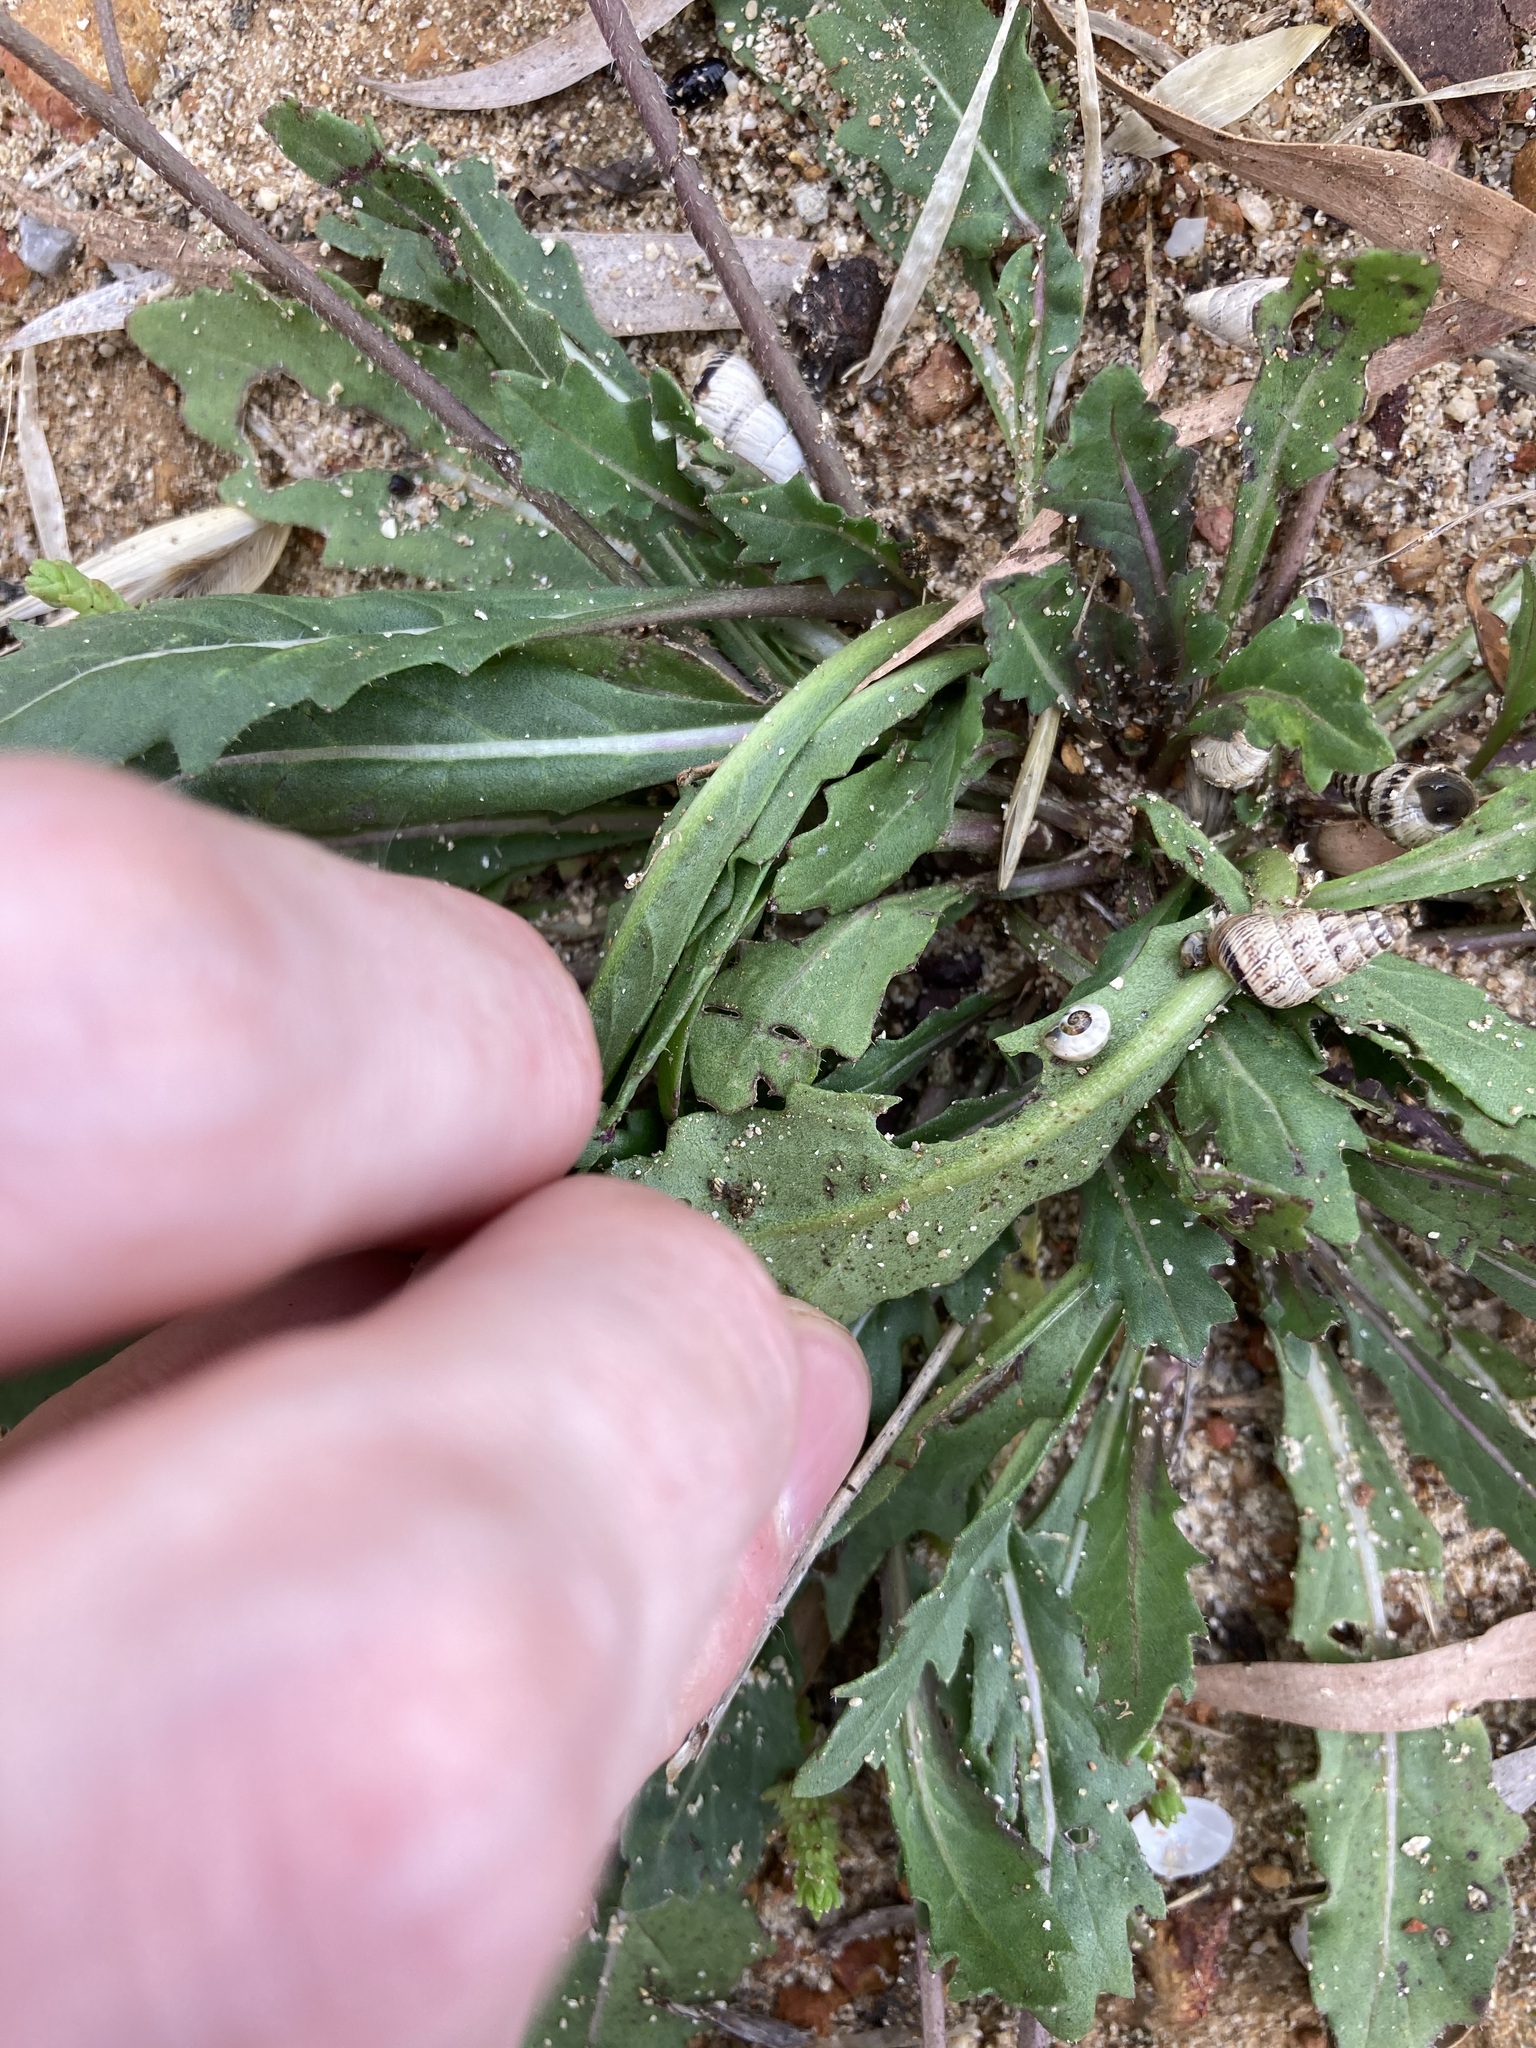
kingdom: Plantae
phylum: Tracheophyta
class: Magnoliopsida
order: Brassicales
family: Brassicaceae
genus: Diplotaxis
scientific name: Diplotaxis muralis
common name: Annual wall-rocket
